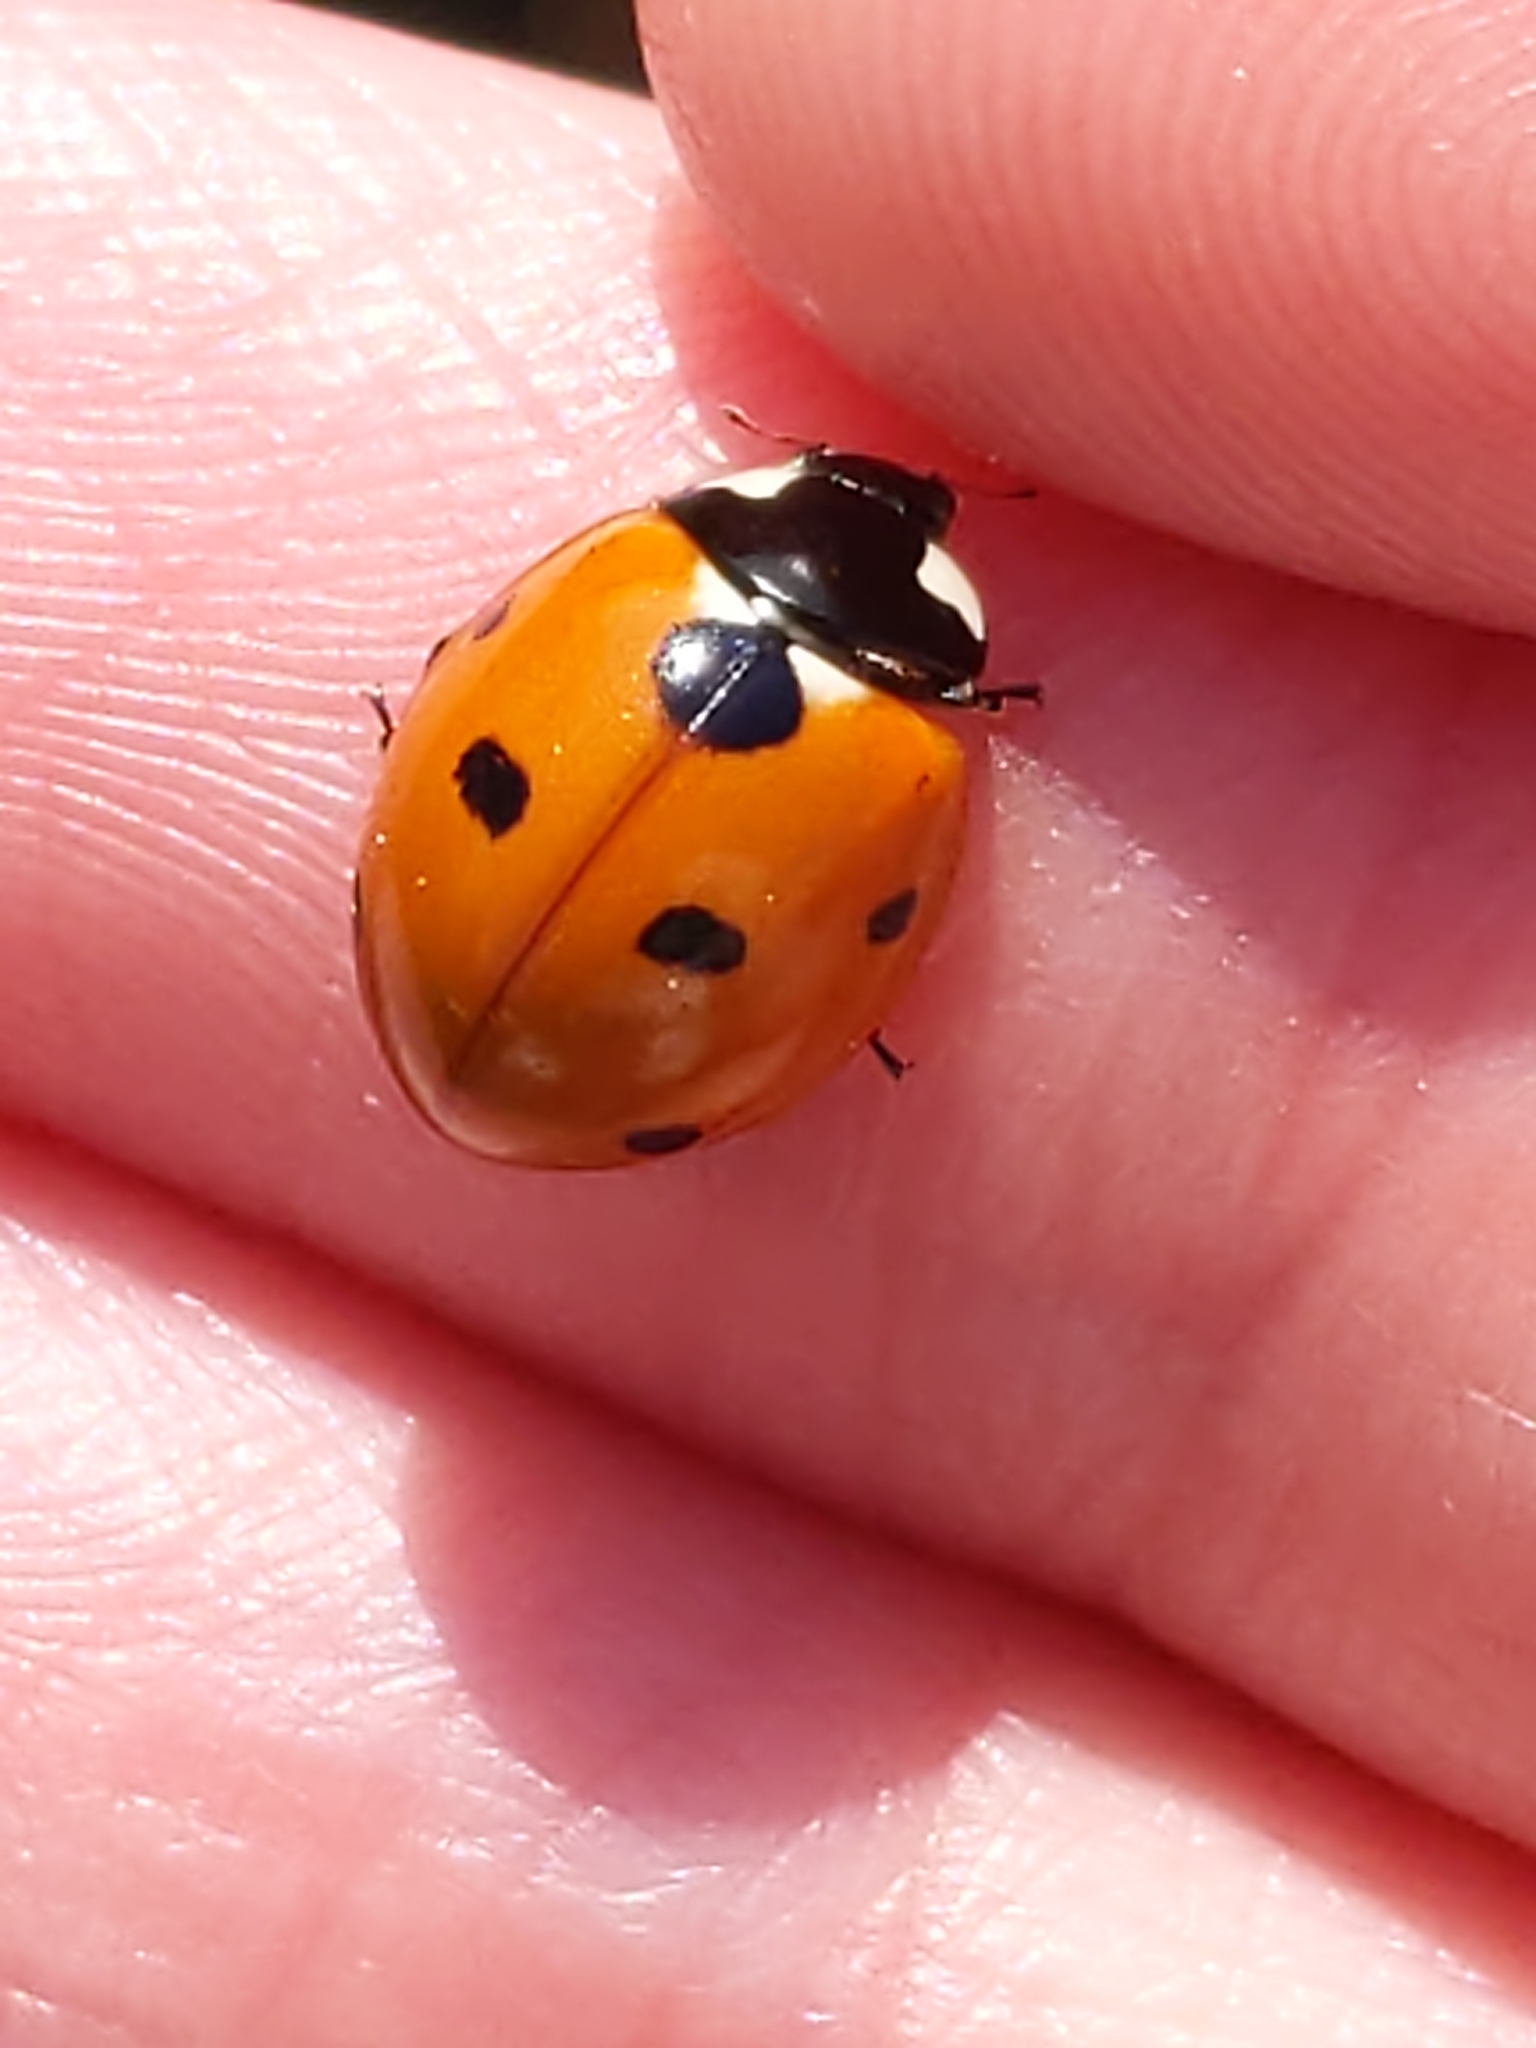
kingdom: Animalia
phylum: Arthropoda
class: Insecta
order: Coleoptera
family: Coccinellidae
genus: Coccinella
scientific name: Coccinella septempunctata
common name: Sevenspotted lady beetle
